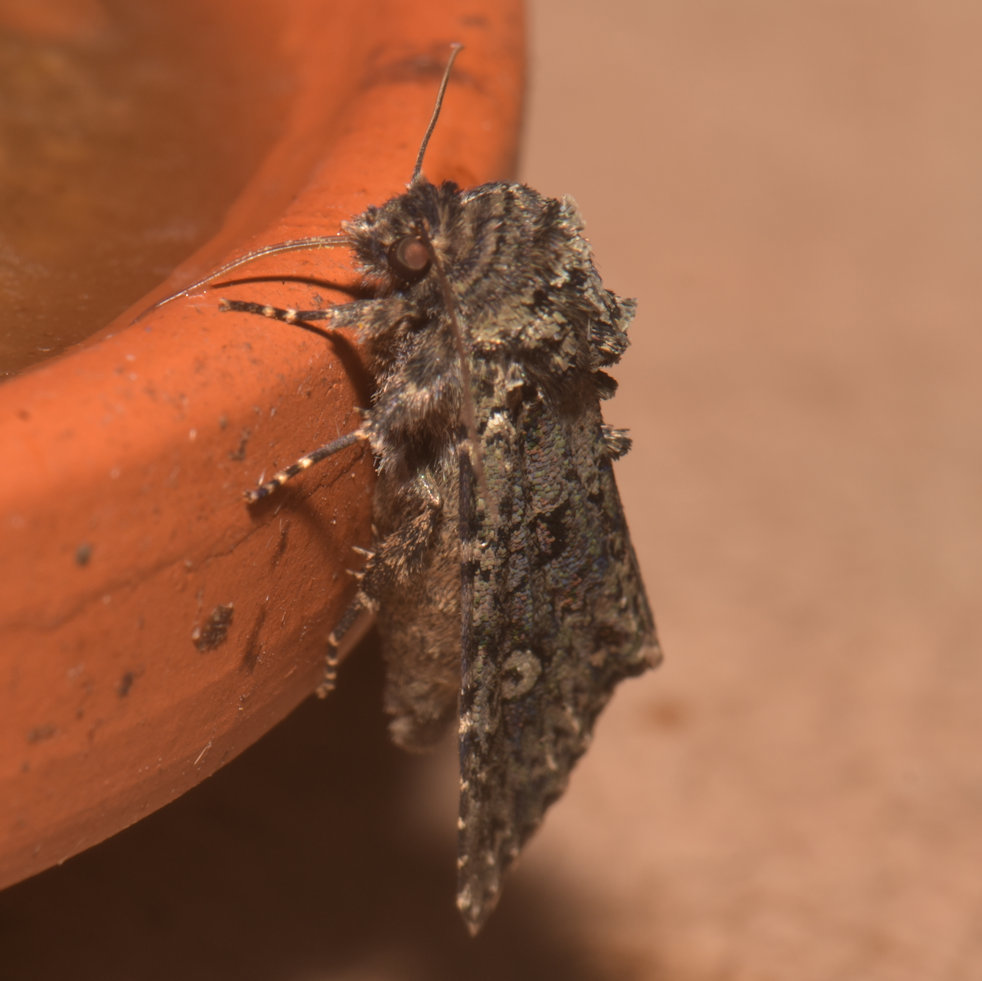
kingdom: Animalia
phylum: Arthropoda
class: Insecta
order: Lepidoptera
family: Noctuidae
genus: Melanchra
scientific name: Melanchra adjuncta
